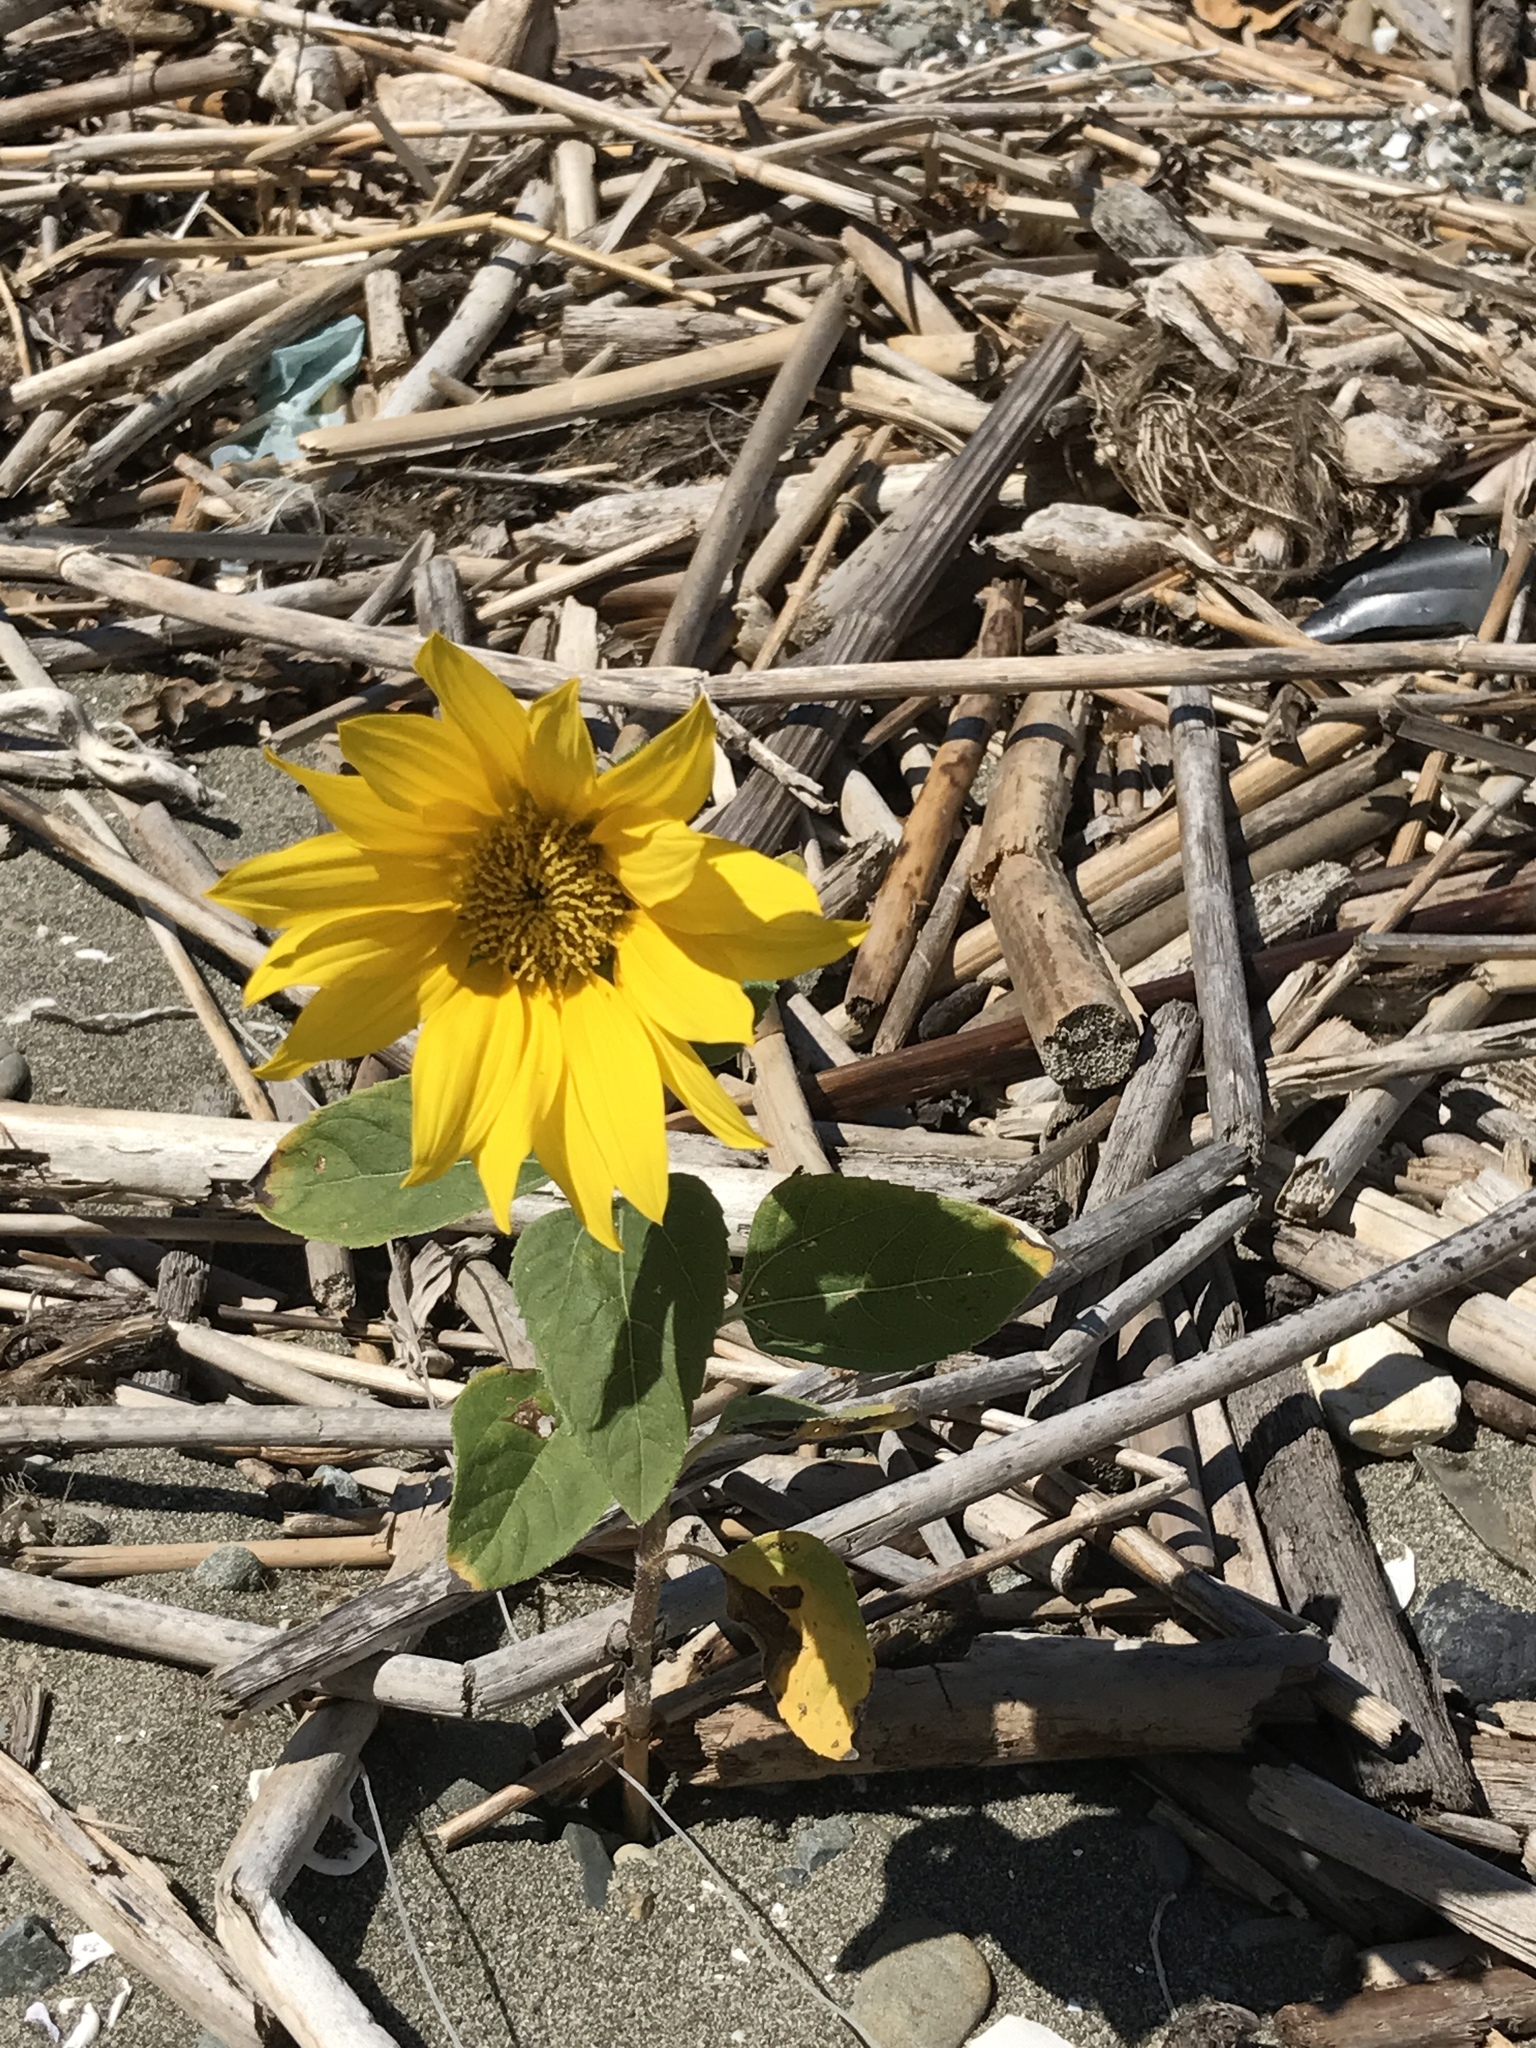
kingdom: Plantae
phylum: Tracheophyta
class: Magnoliopsida
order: Asterales
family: Asteraceae
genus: Helianthus
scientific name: Helianthus annuus
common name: Sunflower
